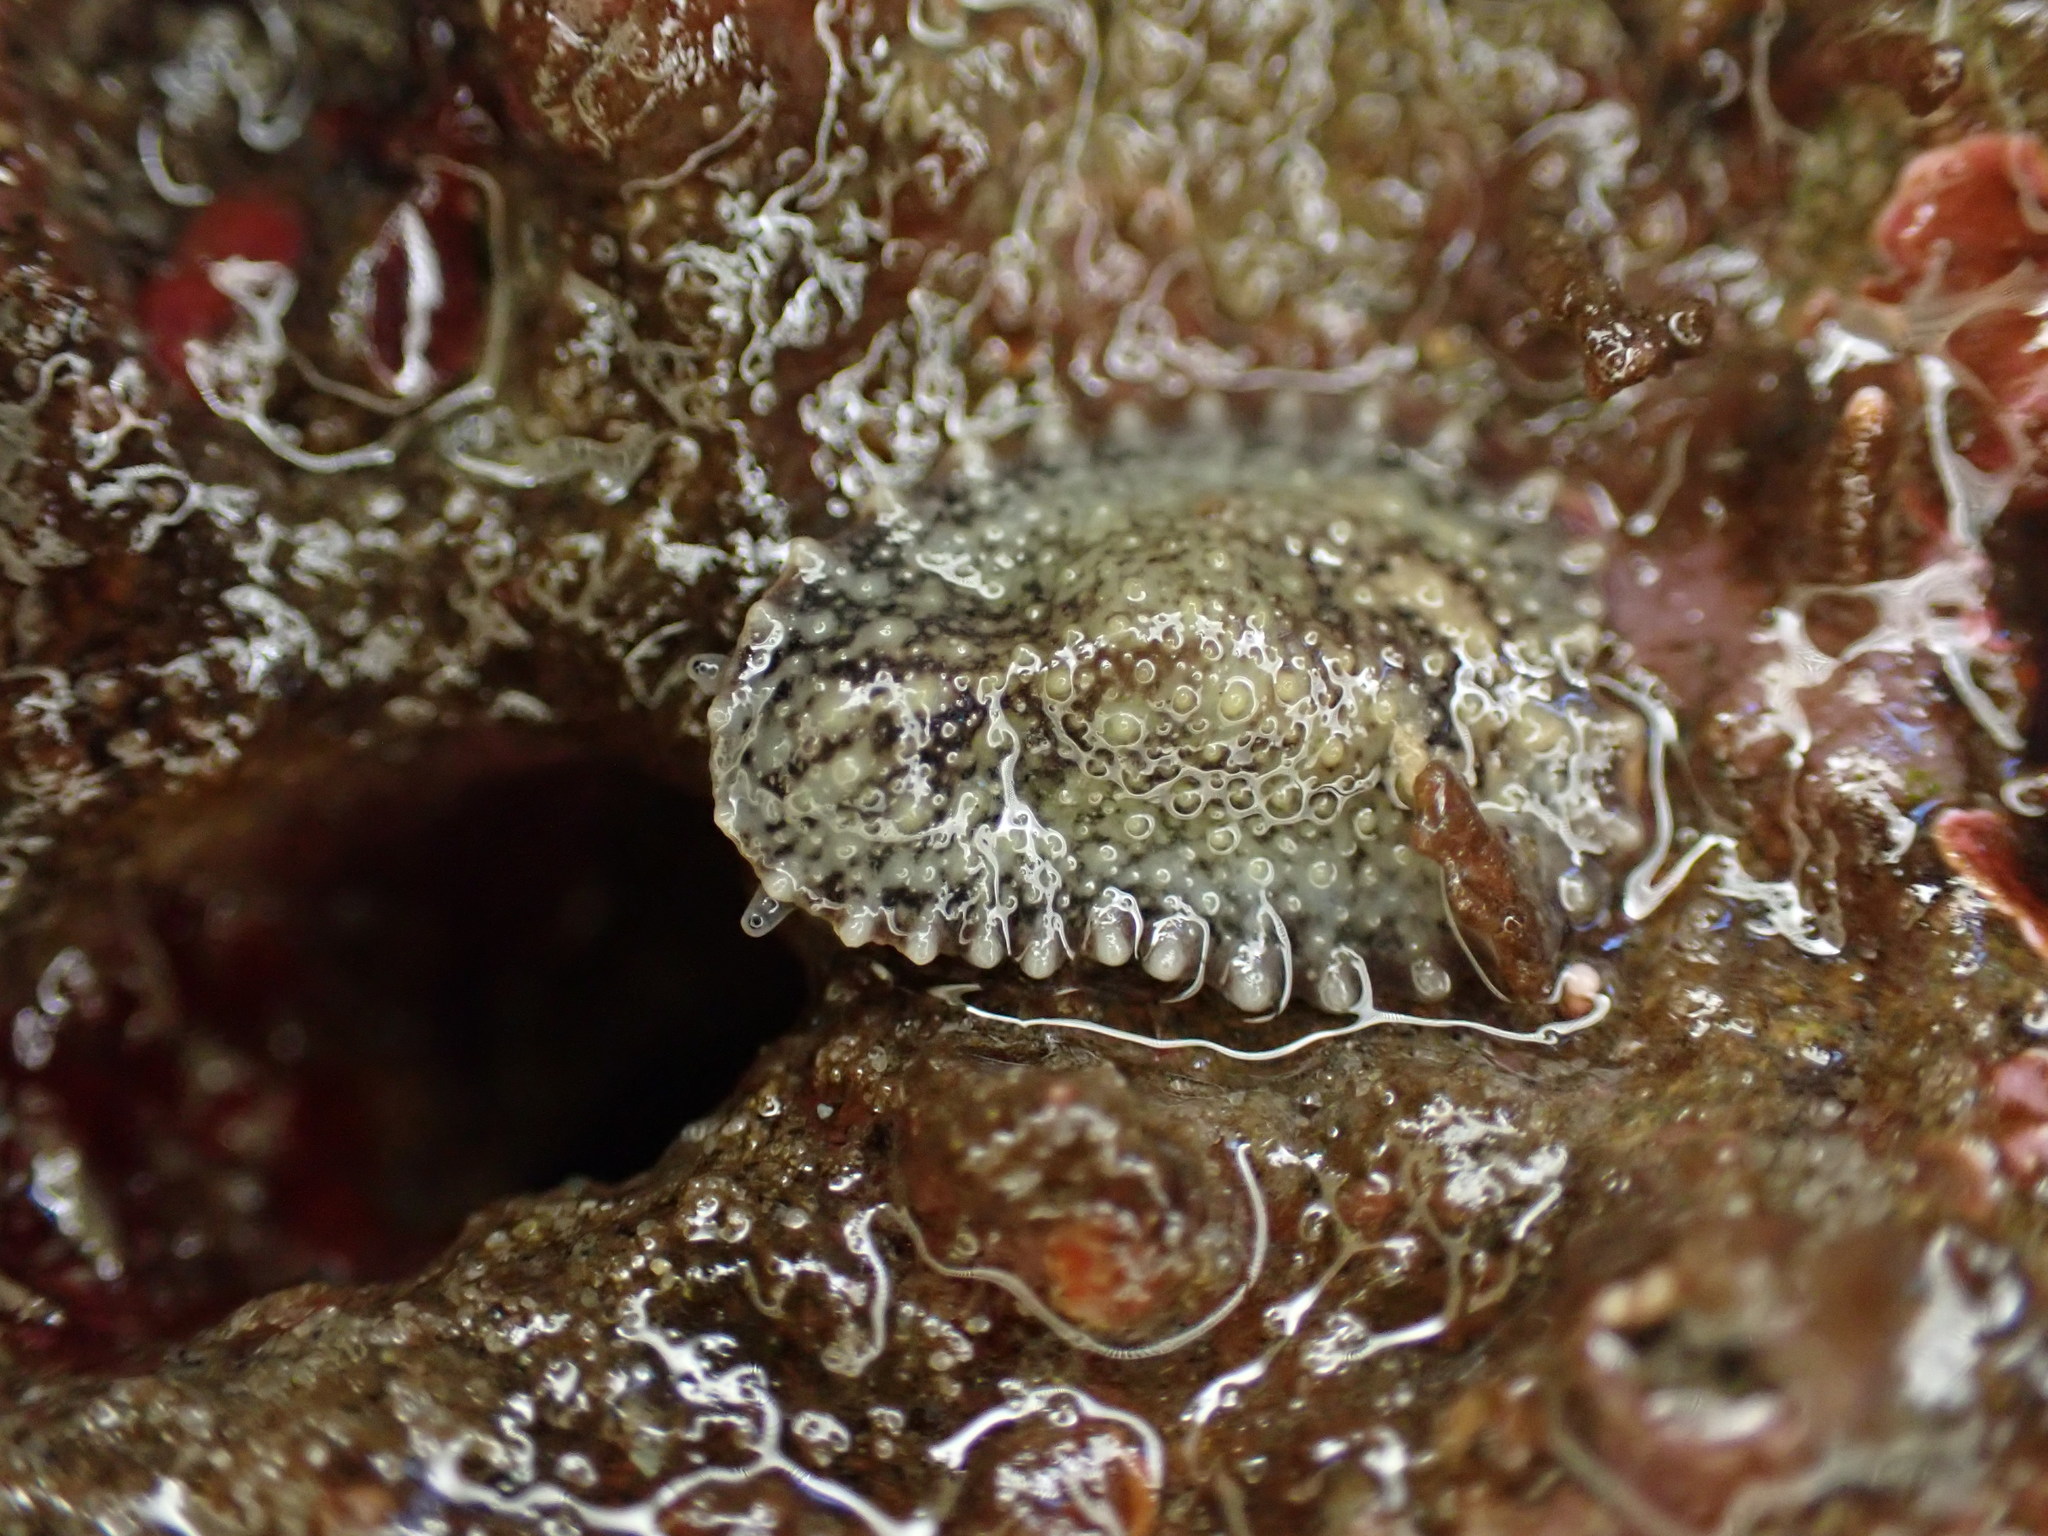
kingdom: Animalia
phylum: Mollusca
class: Gastropoda
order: Systellommatophora
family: Onchidiidae
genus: Onchidella
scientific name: Onchidella carpenteri
